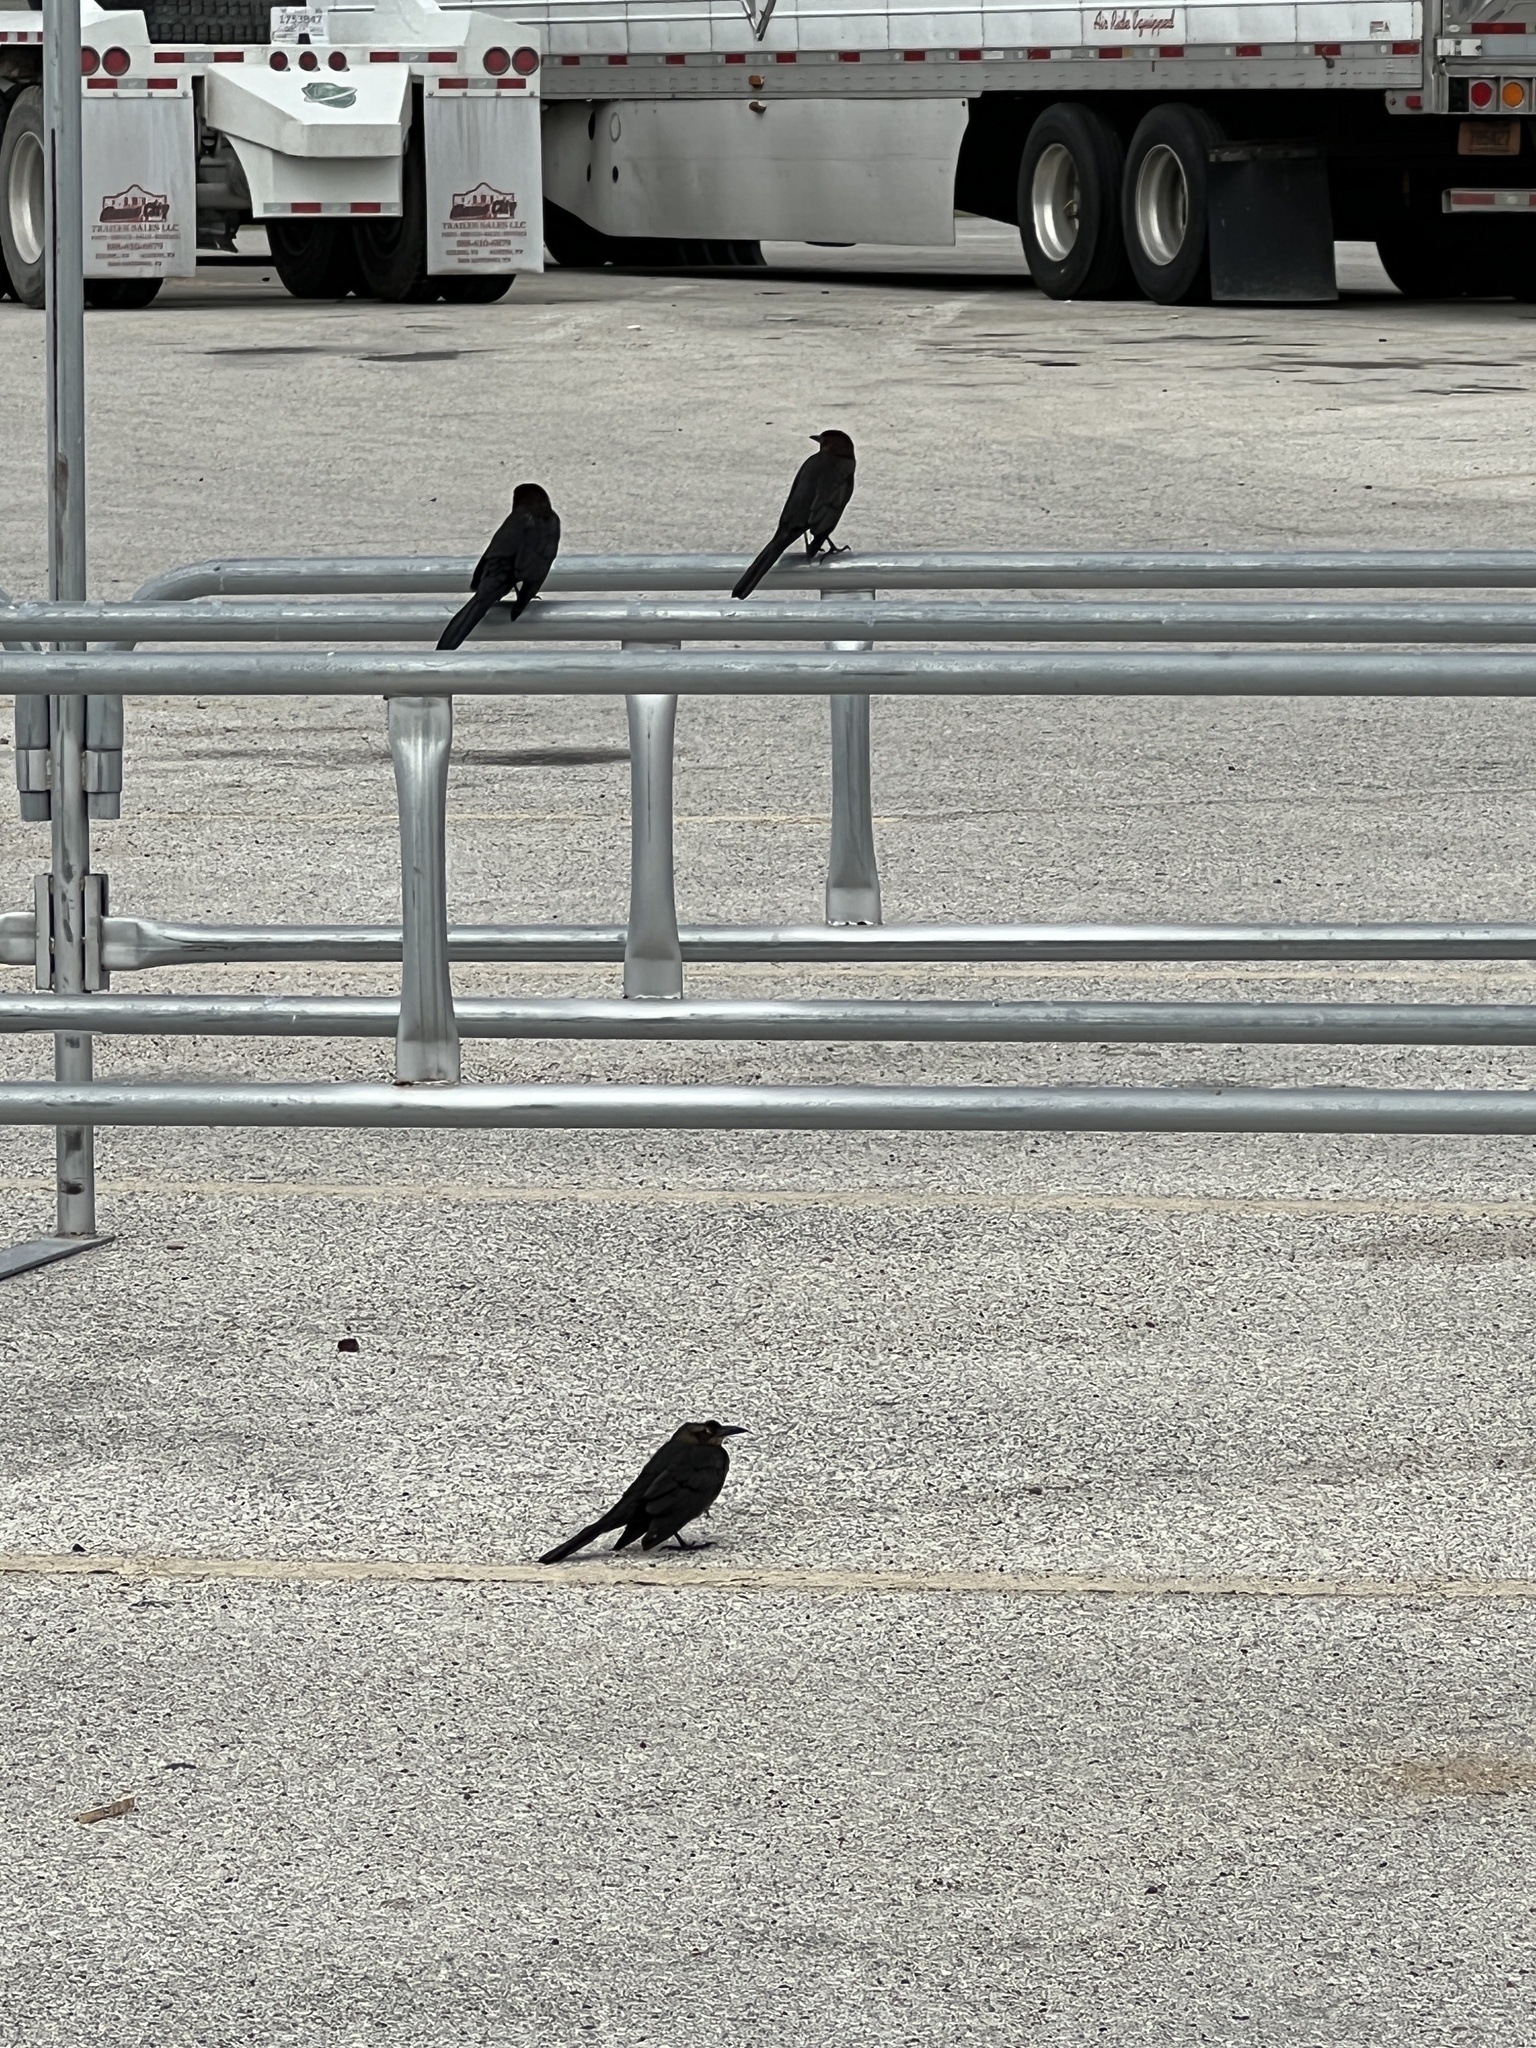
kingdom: Animalia
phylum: Chordata
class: Aves
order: Passeriformes
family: Icteridae
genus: Quiscalus
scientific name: Quiscalus mexicanus
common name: Great-tailed grackle
